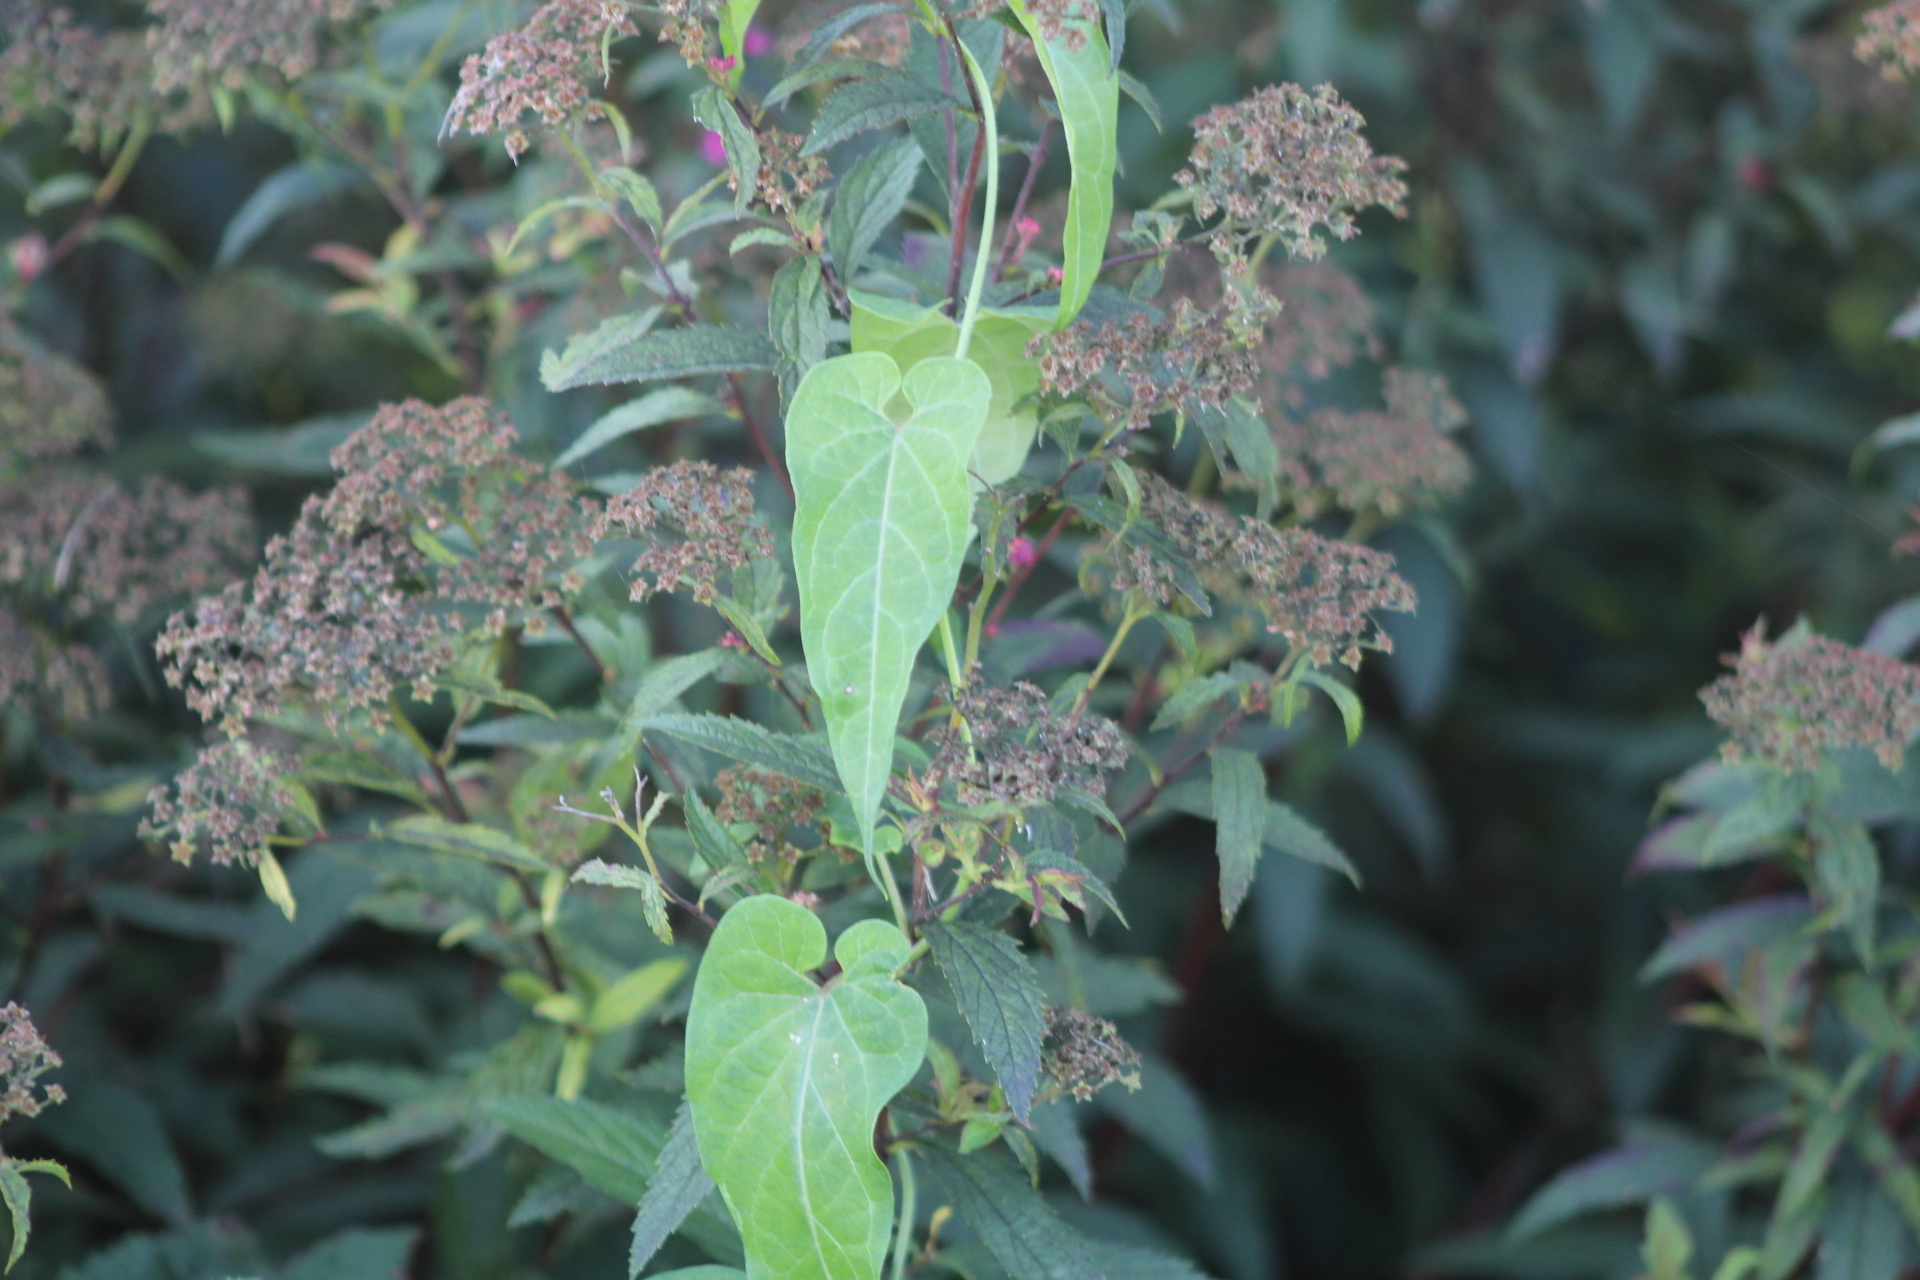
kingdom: Plantae
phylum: Tracheophyta
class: Magnoliopsida
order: Gentianales
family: Apocynaceae
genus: Cynanchum
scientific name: Cynanchum laeve
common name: Sandvine
